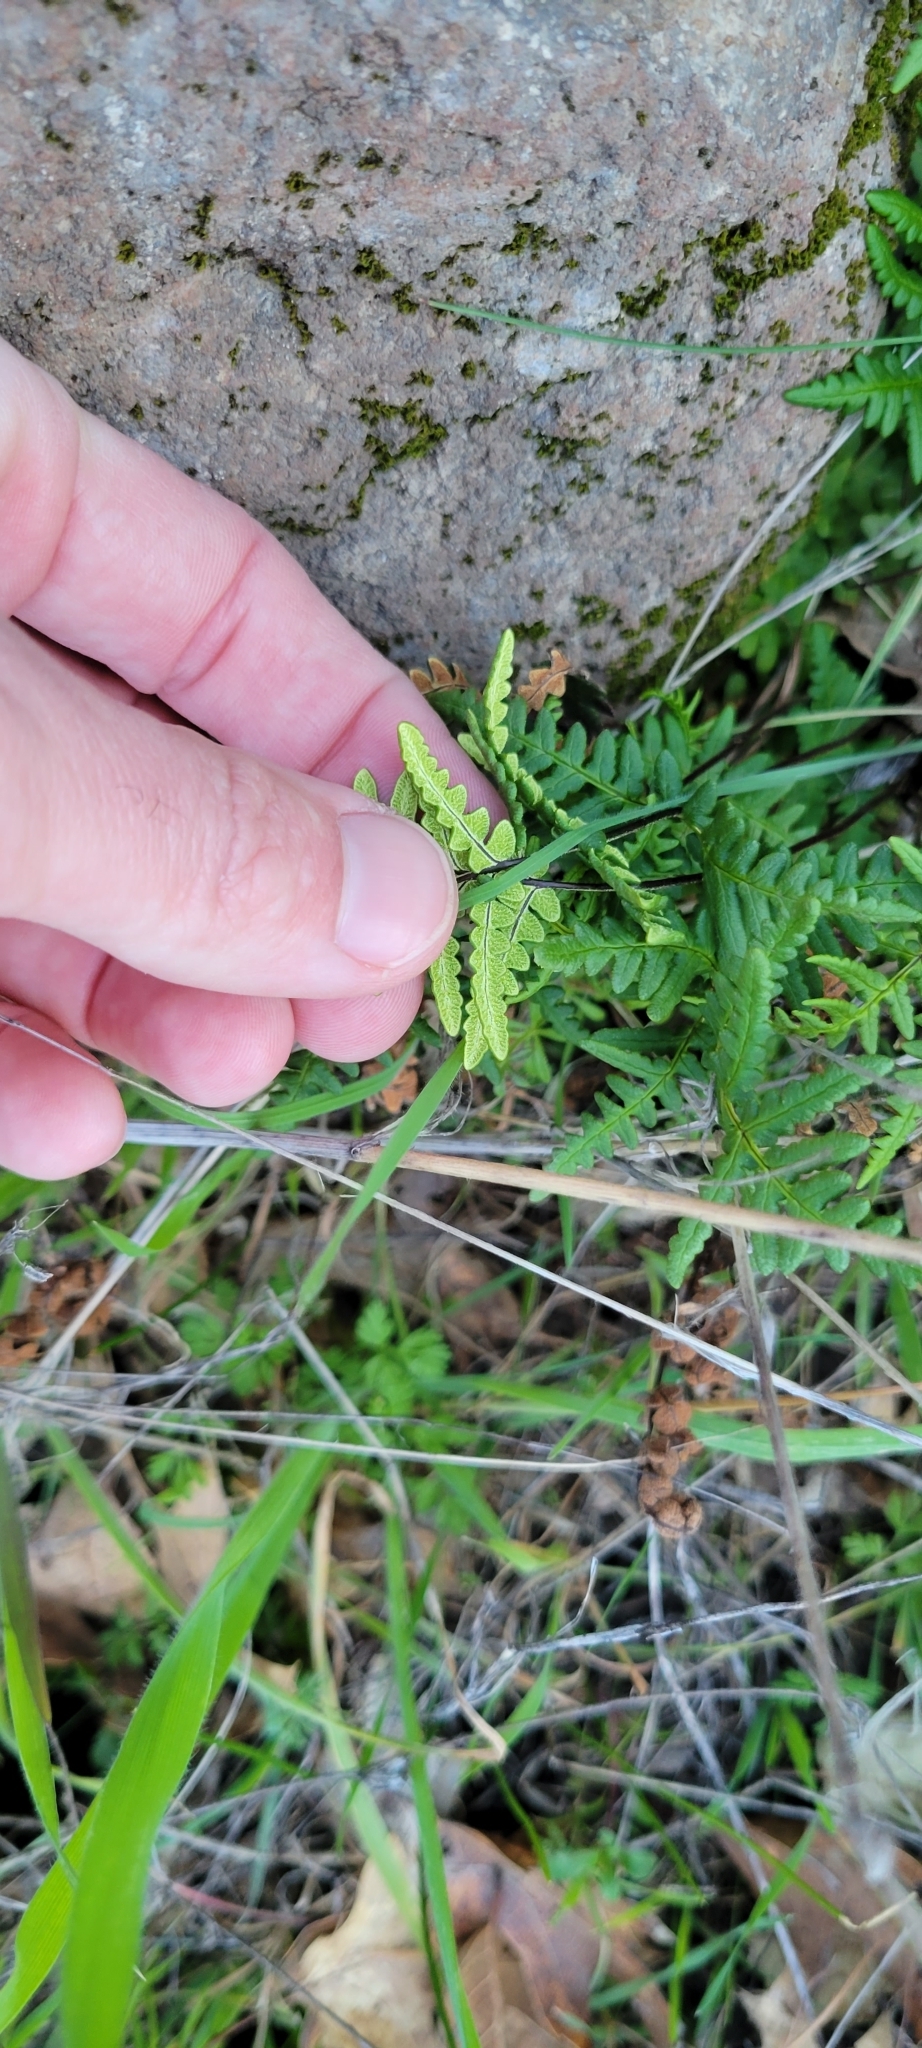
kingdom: Plantae
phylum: Tracheophyta
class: Polypodiopsida
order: Polypodiales
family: Pteridaceae
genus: Pentagramma
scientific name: Pentagramma triangularis
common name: Gold fern
